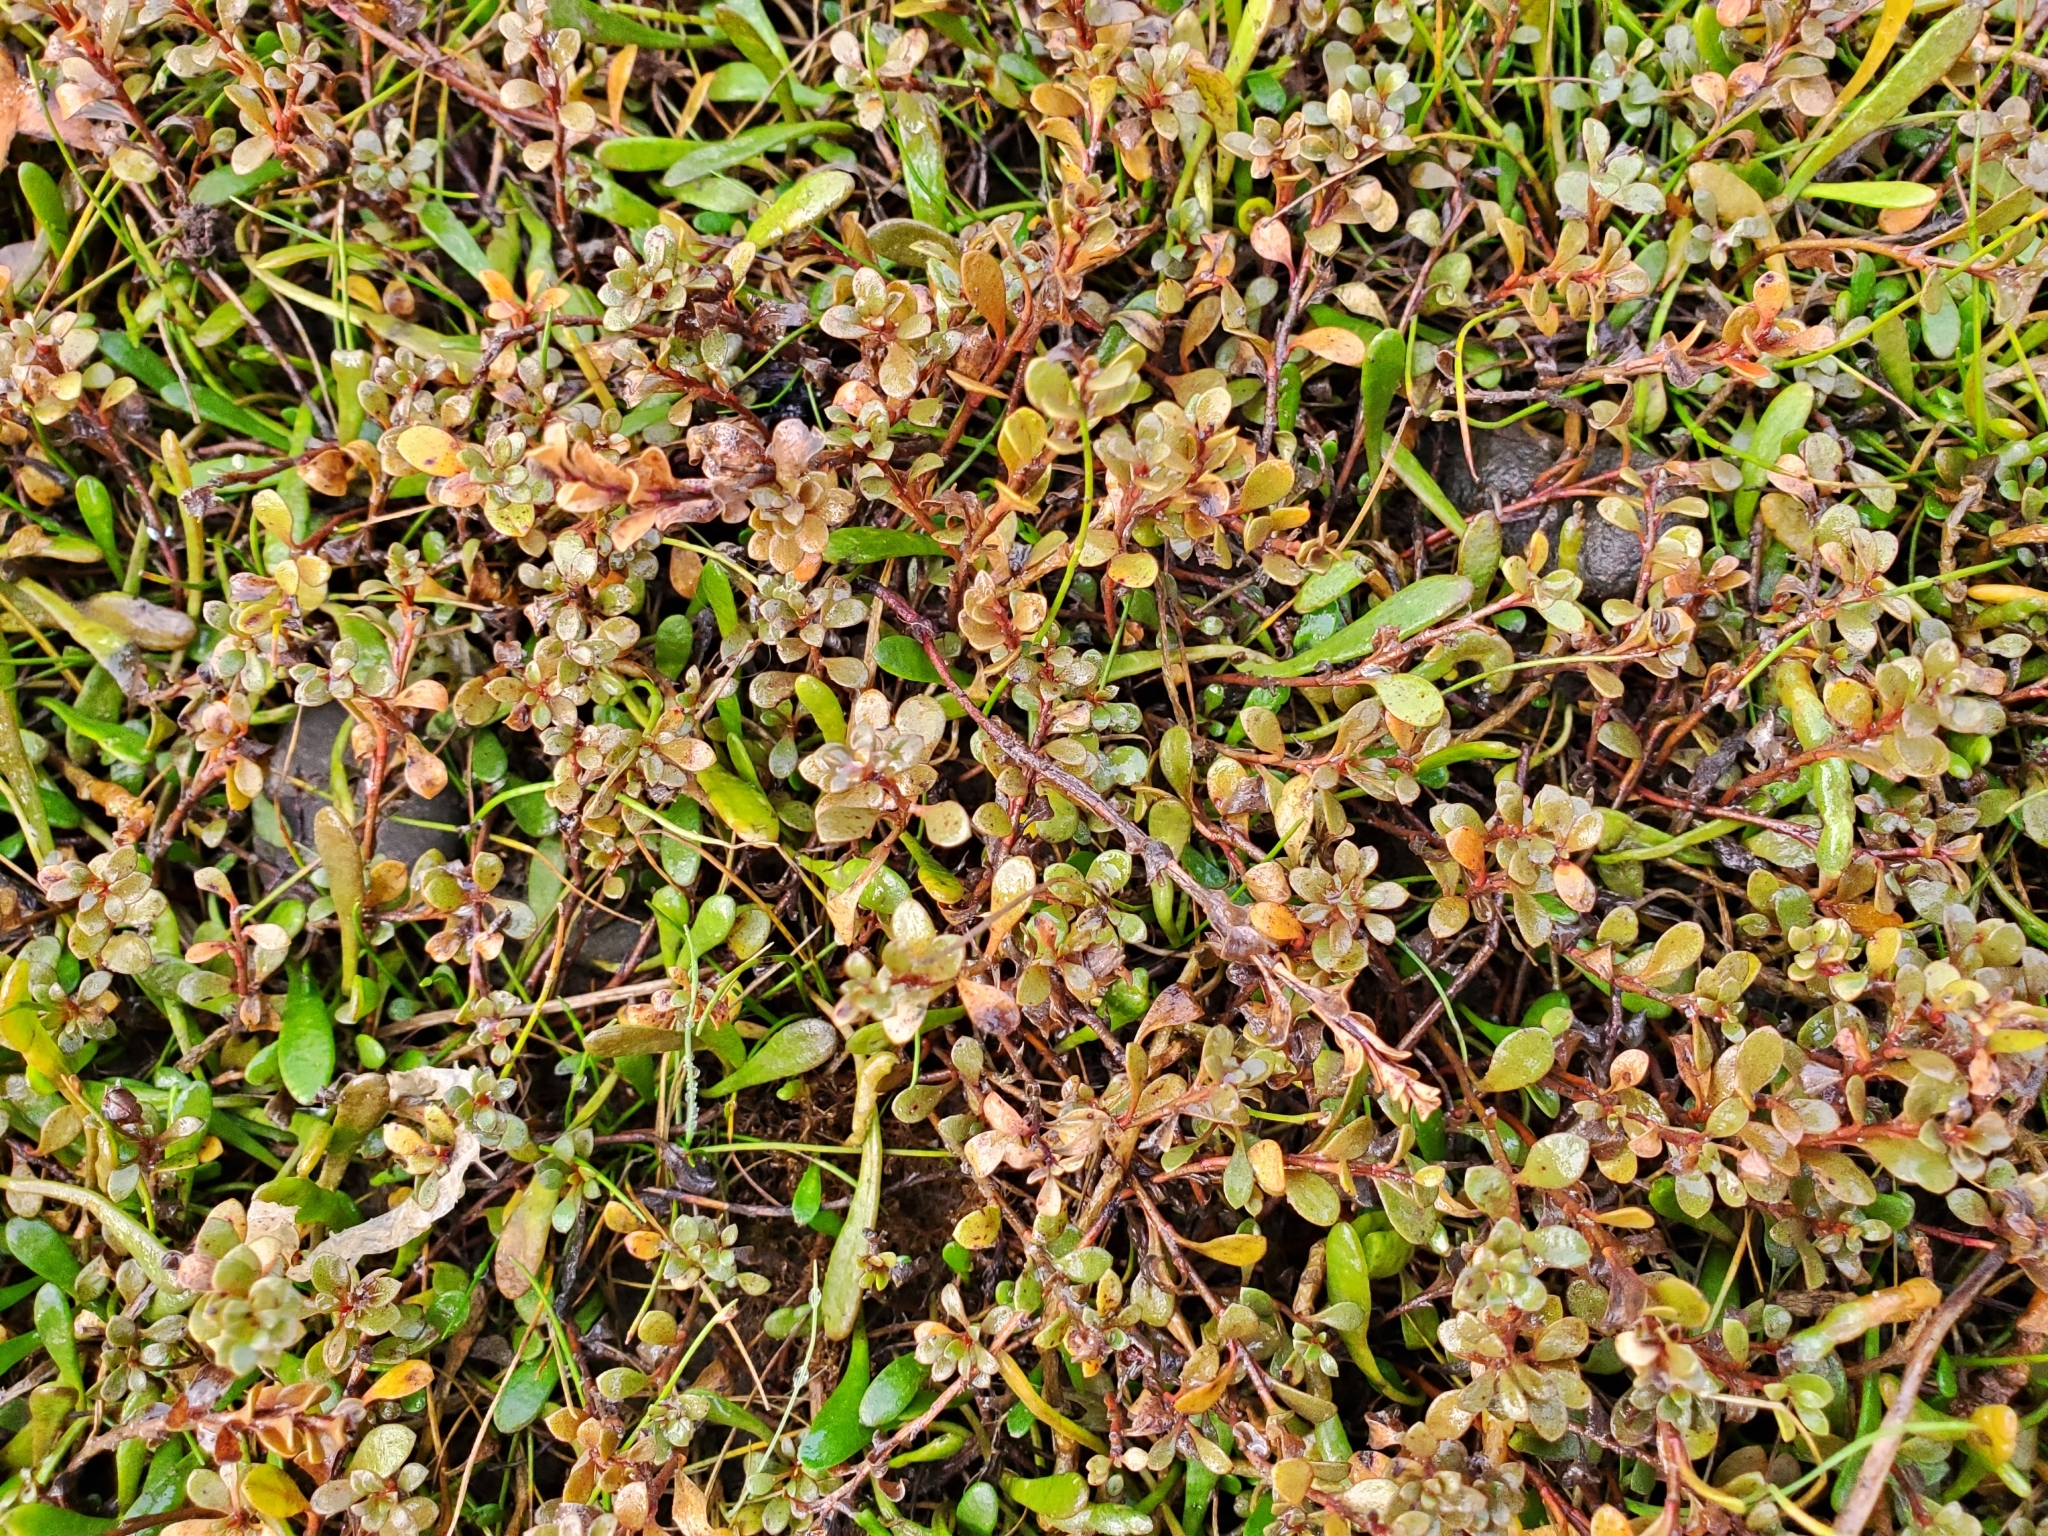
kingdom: Plantae
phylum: Tracheophyta
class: Magnoliopsida
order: Ericales
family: Primulaceae
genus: Samolus
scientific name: Samolus repens
